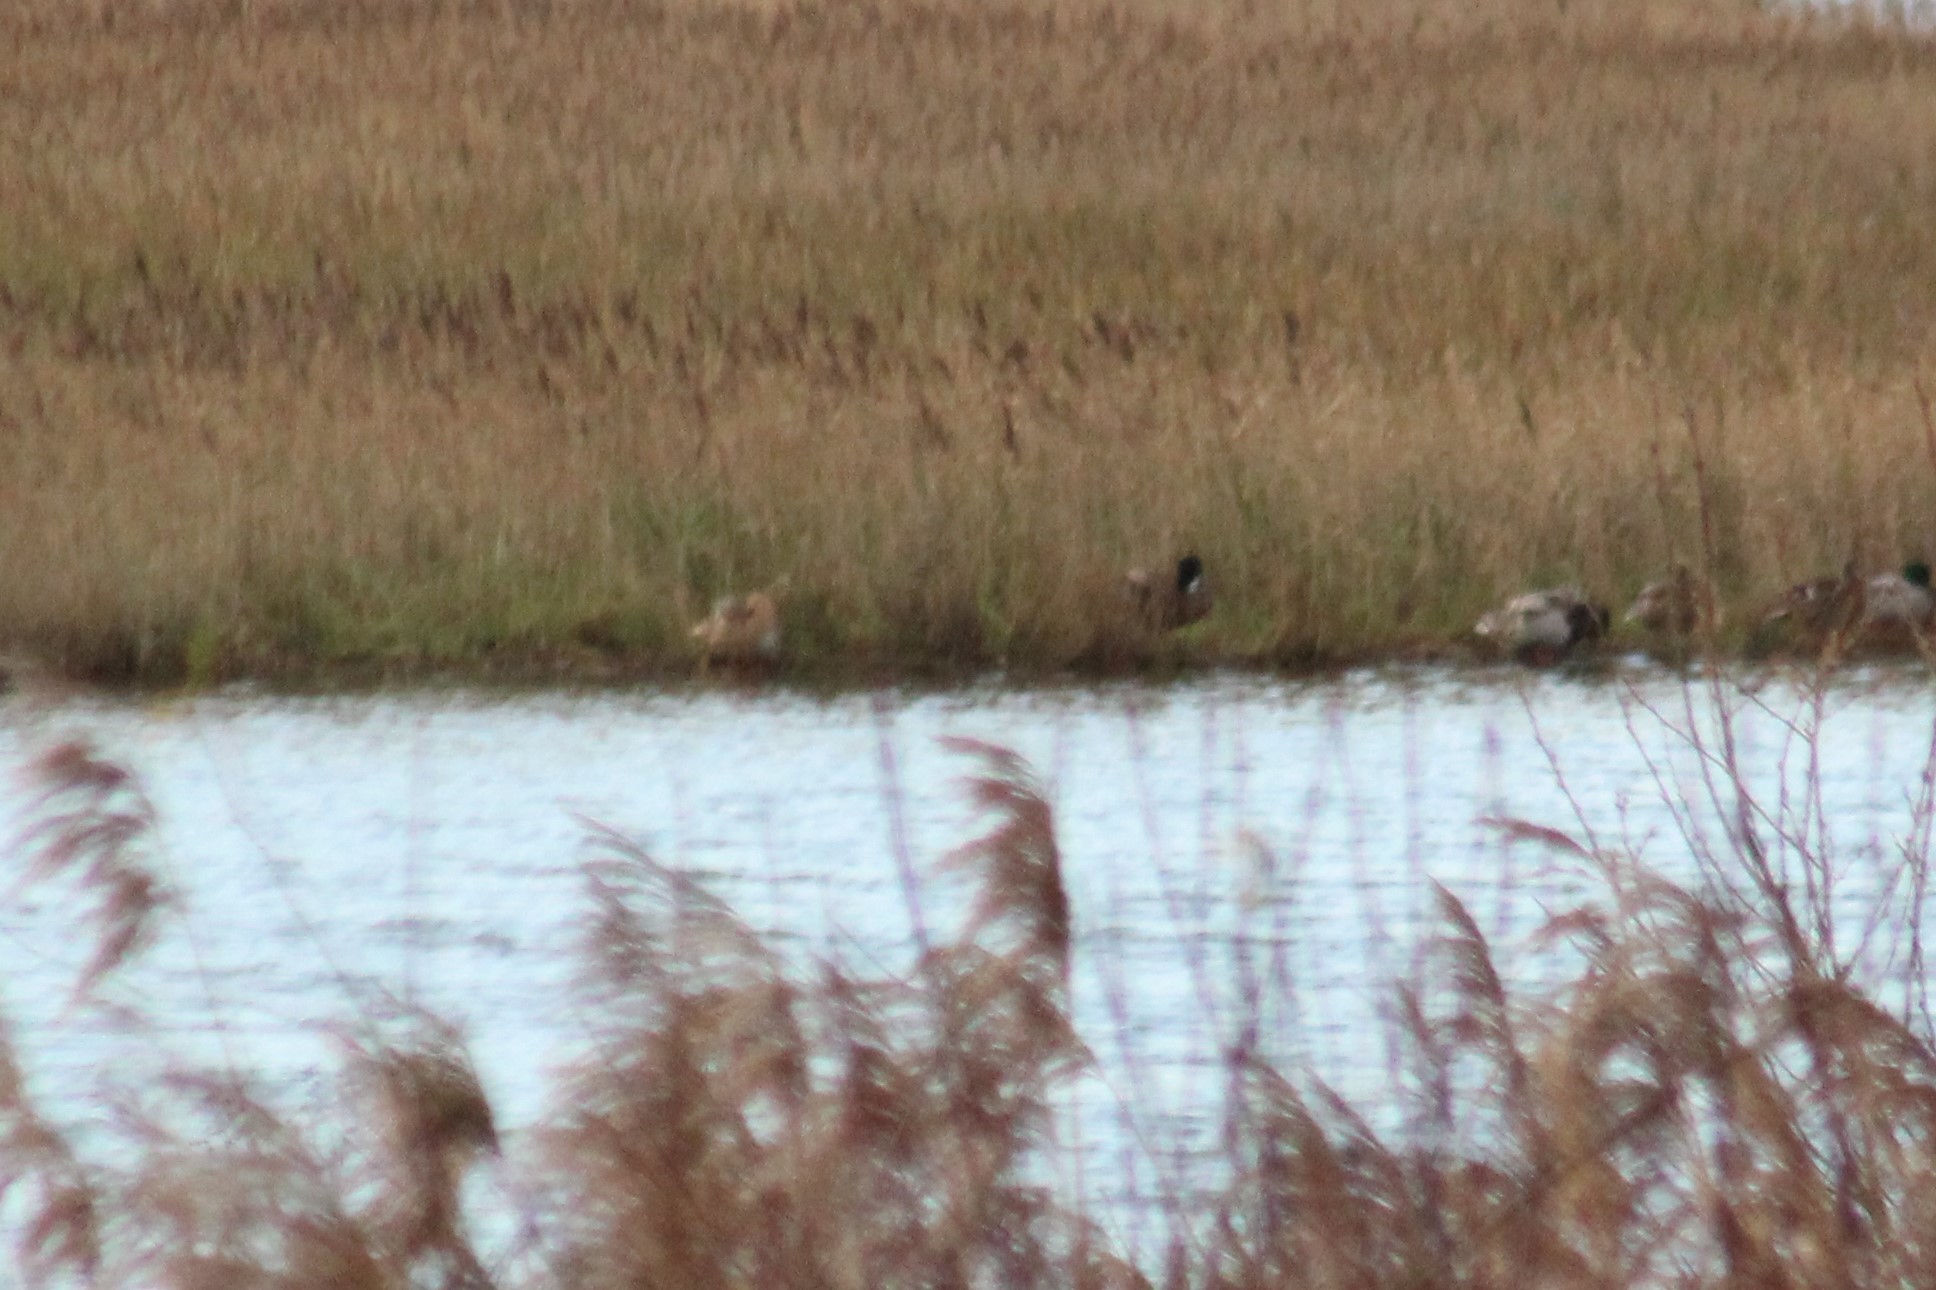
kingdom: Animalia
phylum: Chordata
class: Aves
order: Anseriformes
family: Anatidae
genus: Anas
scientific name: Anas platyrhynchos
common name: Mallard
